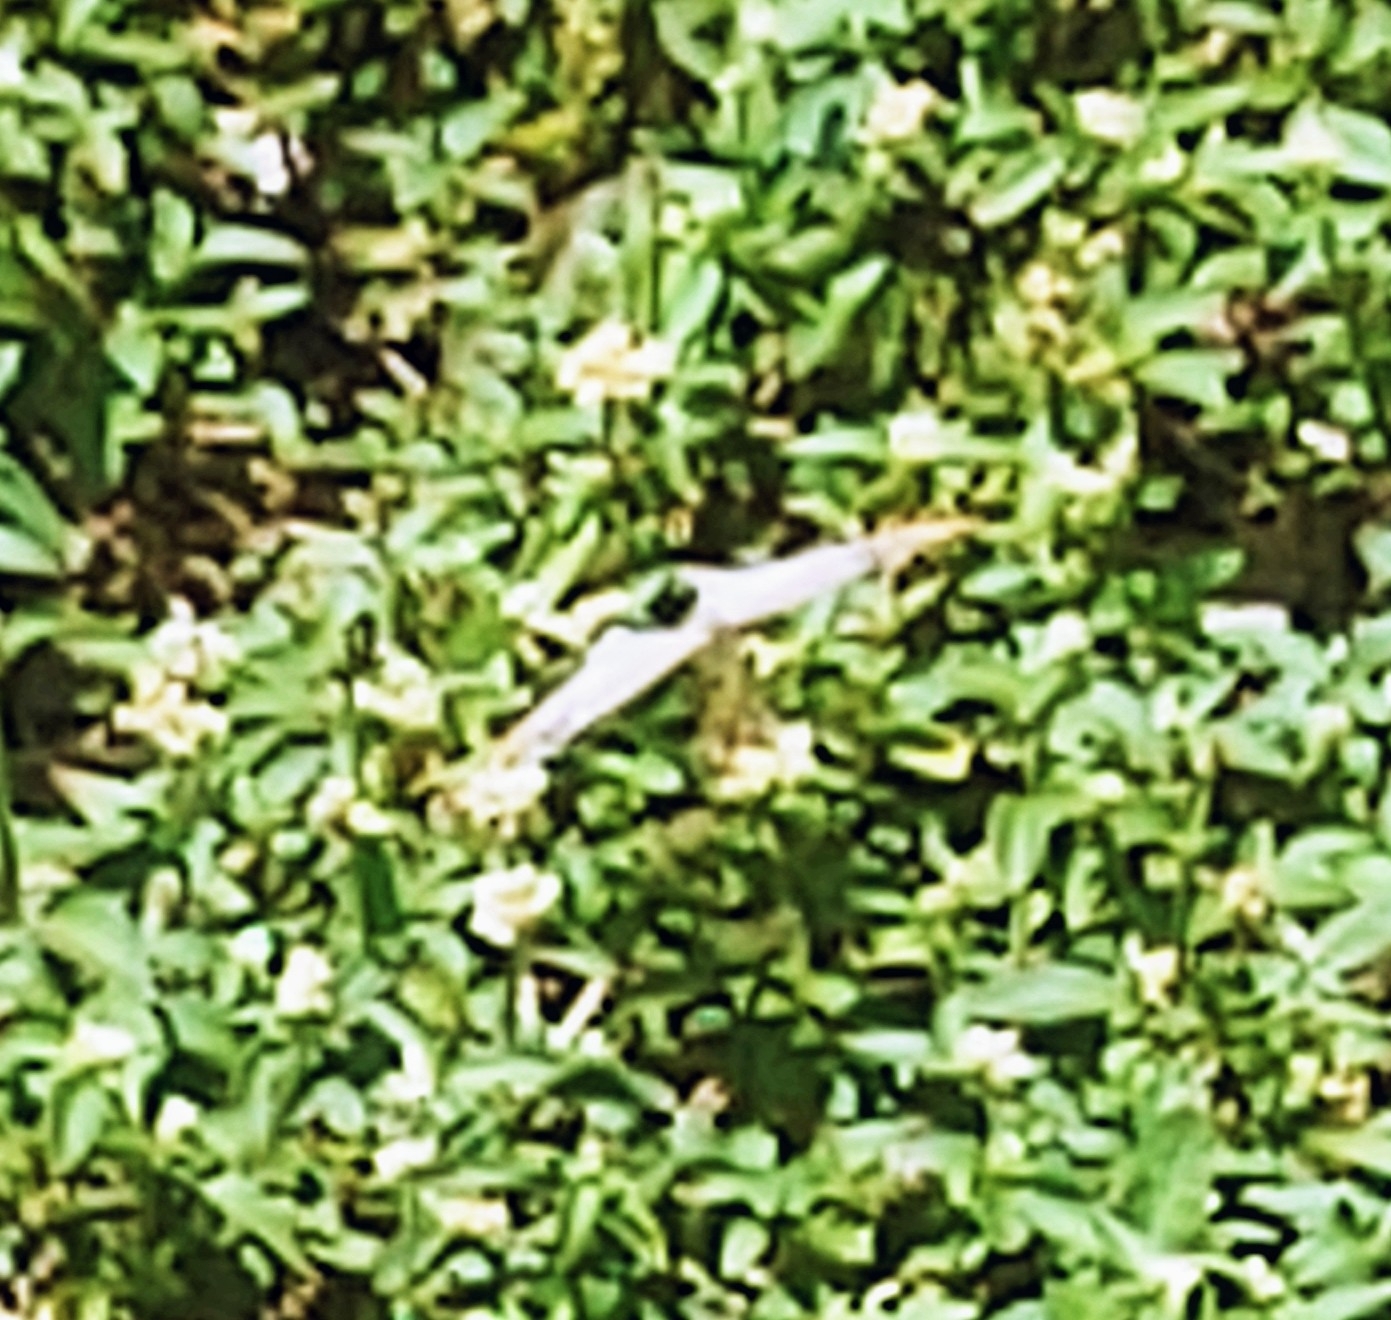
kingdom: Animalia
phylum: Arthropoda
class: Insecta
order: Lepidoptera
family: Nymphalidae
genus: Anartia
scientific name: Anartia jatrophae
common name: White peacock
